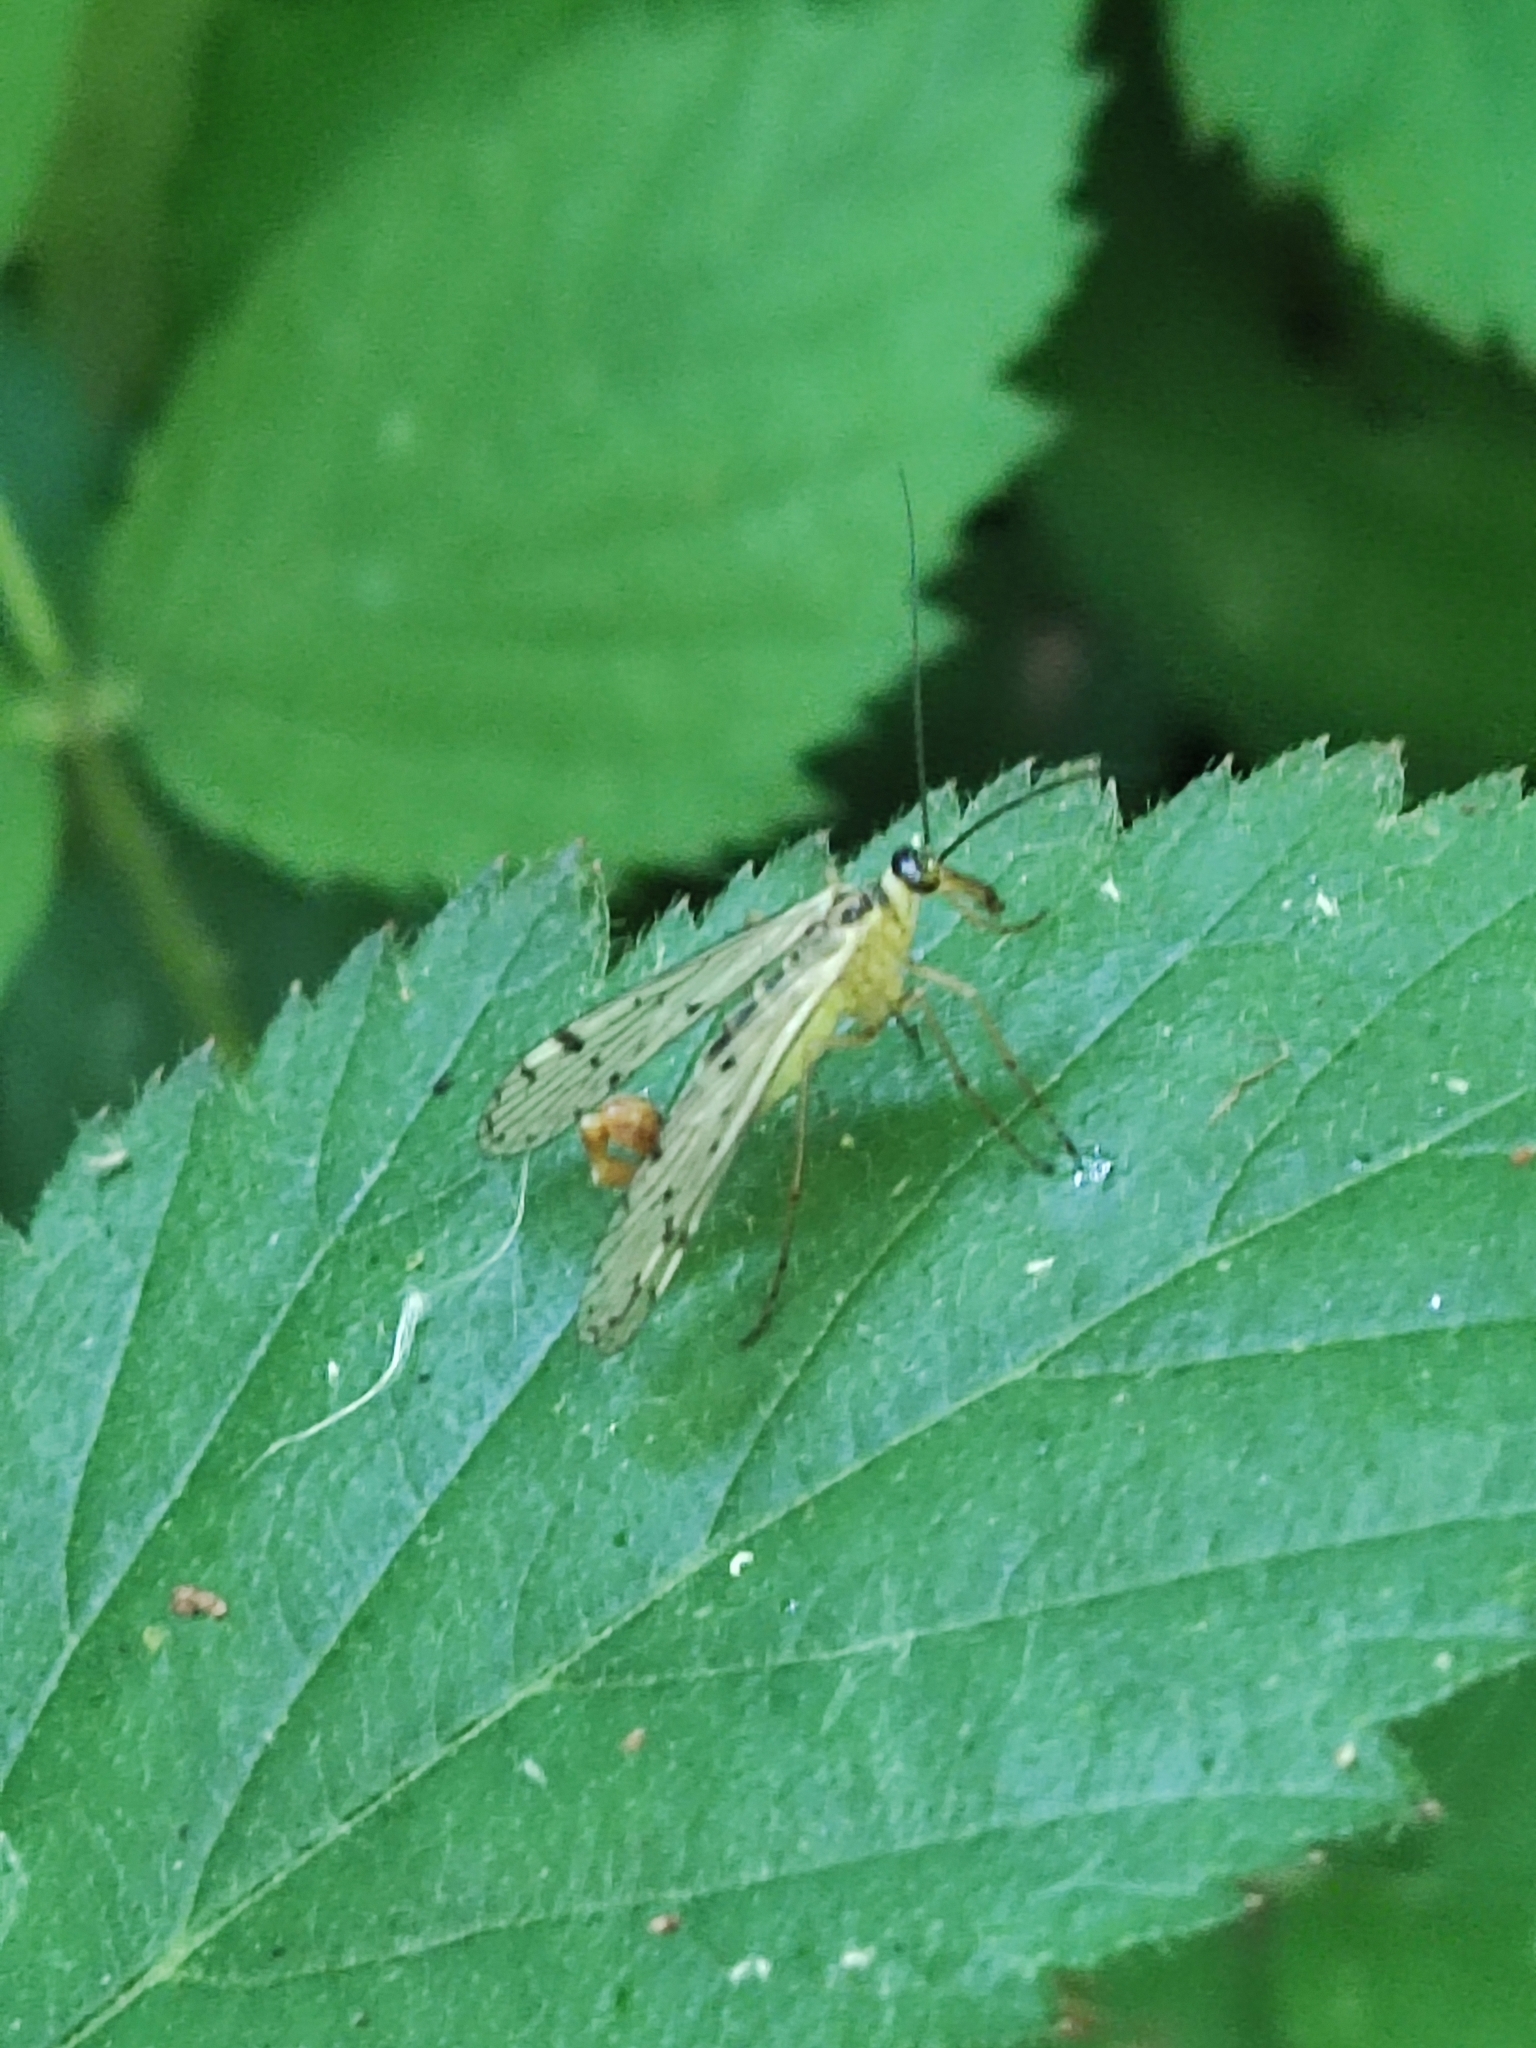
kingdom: Animalia
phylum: Arthropoda
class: Insecta
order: Mecoptera
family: Panorpidae
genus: Panorpa
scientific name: Panorpa germanica
